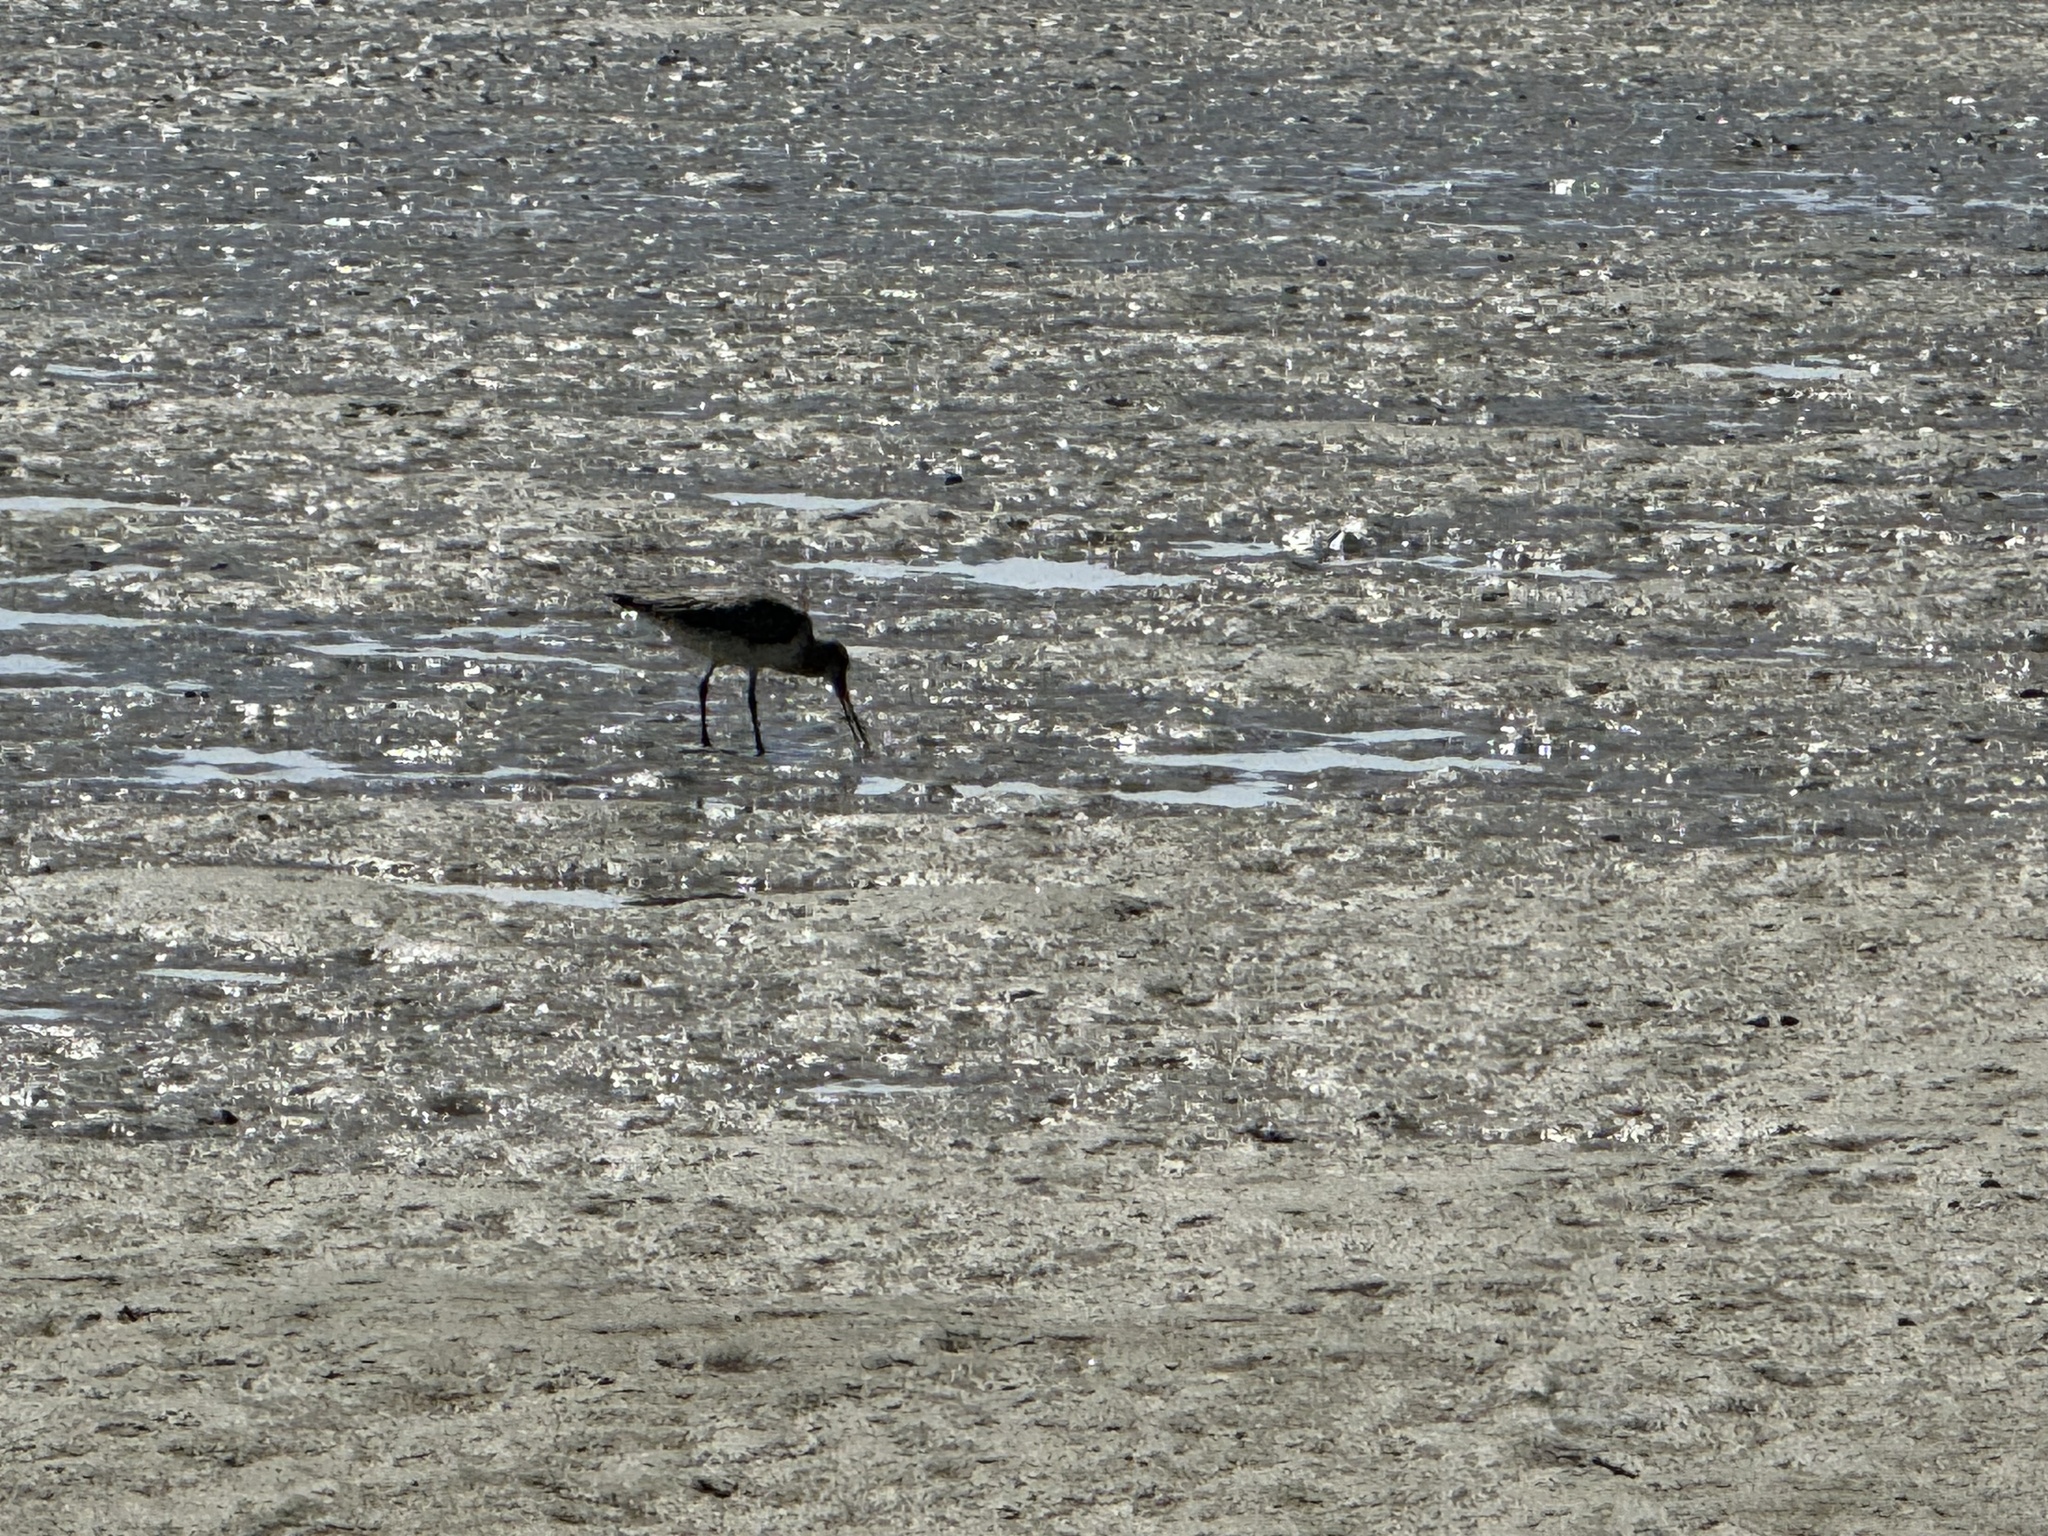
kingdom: Animalia
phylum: Chordata
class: Aves
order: Charadriiformes
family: Scolopacidae
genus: Limosa
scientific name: Limosa lapponica
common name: Bar-tailed godwit
